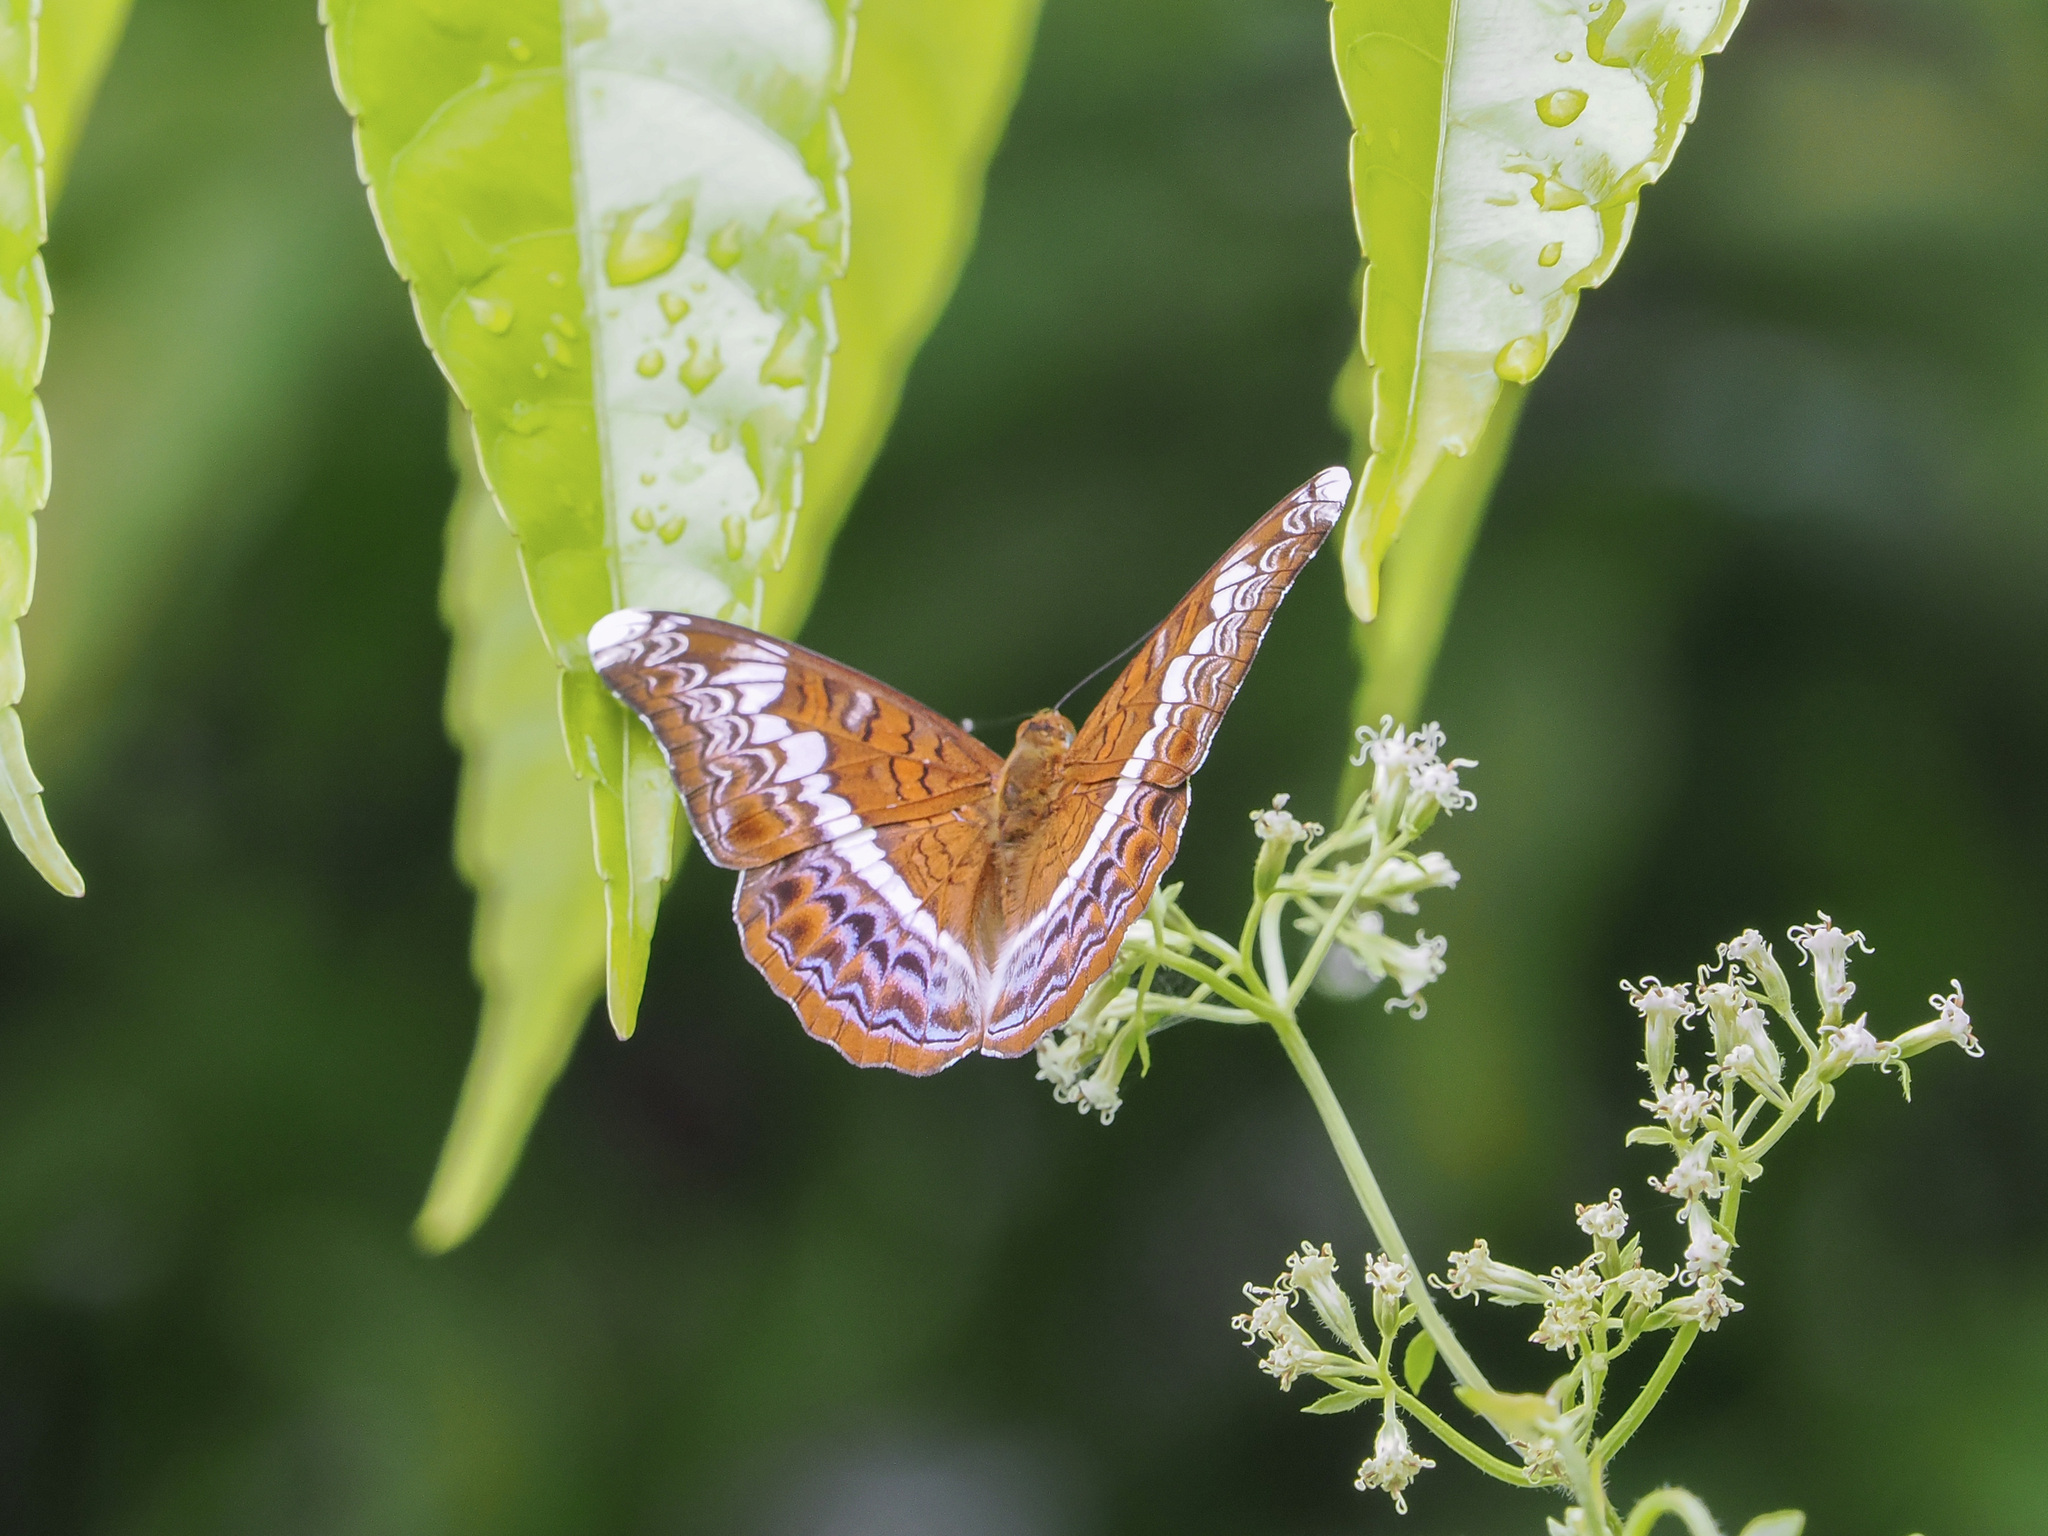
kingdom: Animalia
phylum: Arthropoda
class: Insecta
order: Lepidoptera
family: Nymphalidae
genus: Lebadea
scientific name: Lebadea martha
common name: Knight
